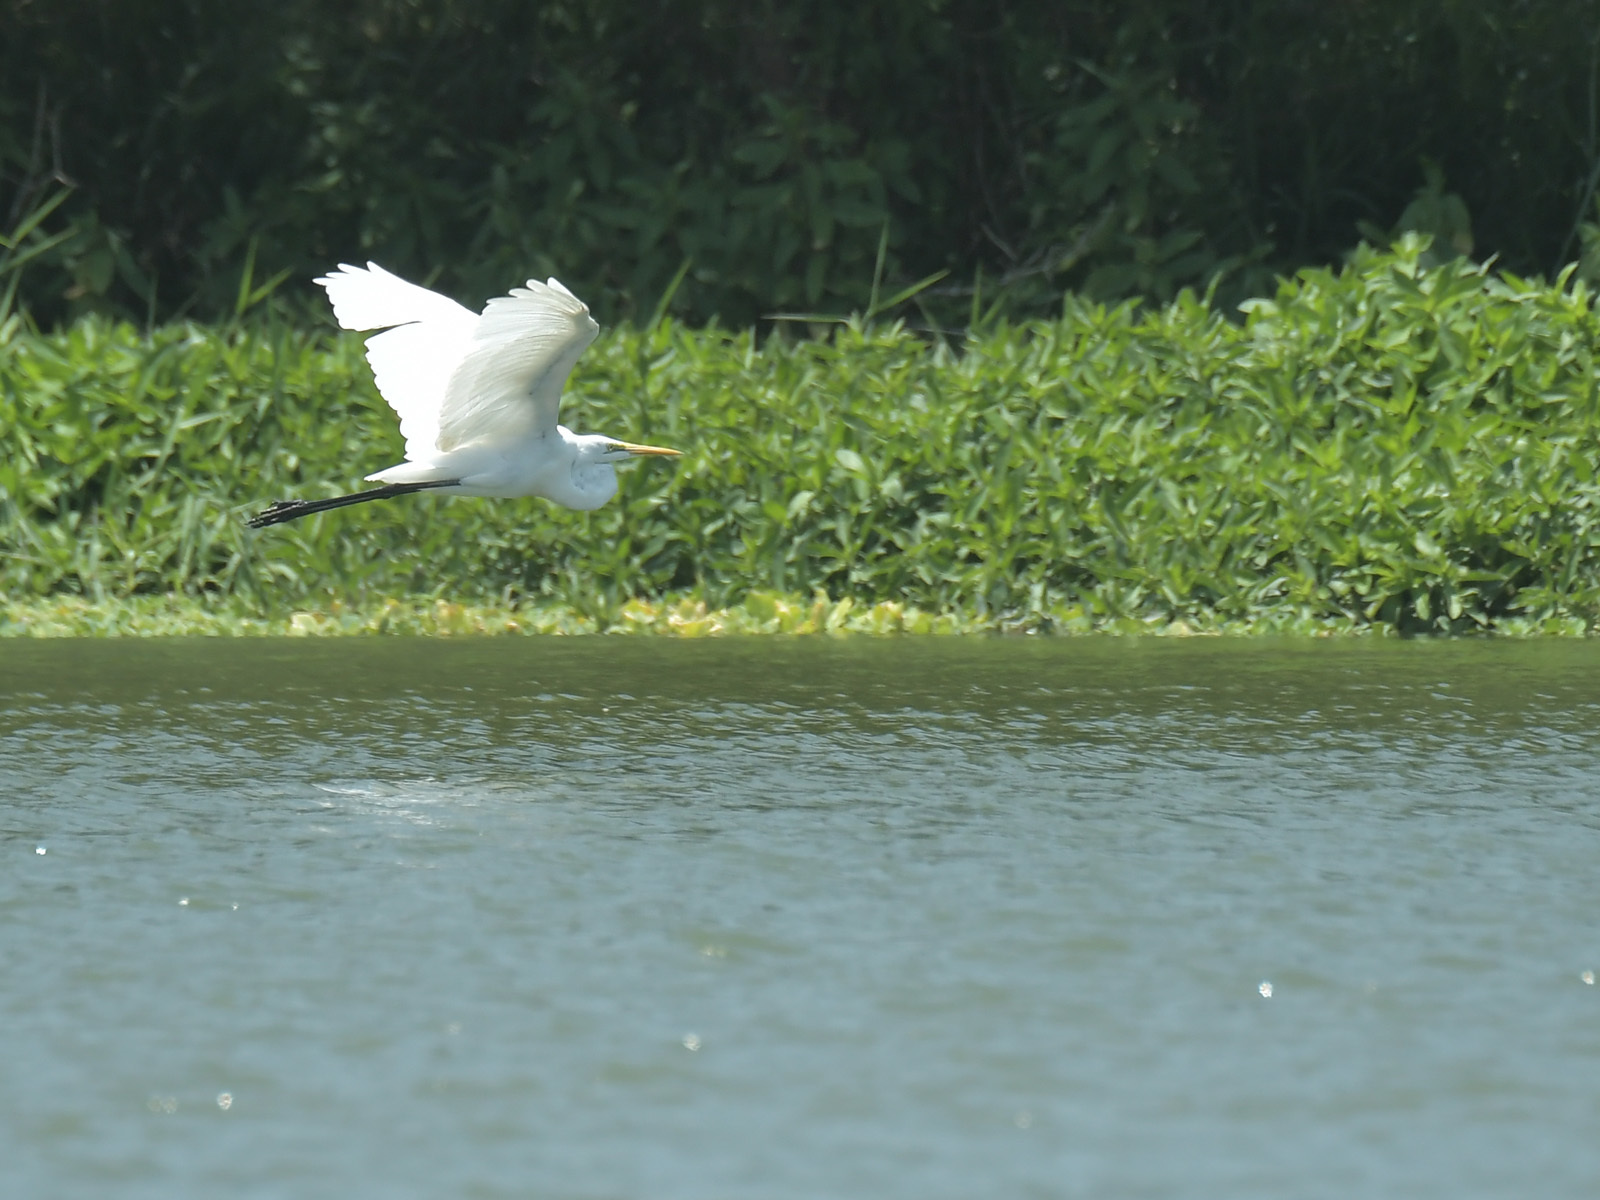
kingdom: Animalia
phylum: Chordata
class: Aves
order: Pelecaniformes
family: Ardeidae
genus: Ardea
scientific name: Ardea alba
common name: Great egret
